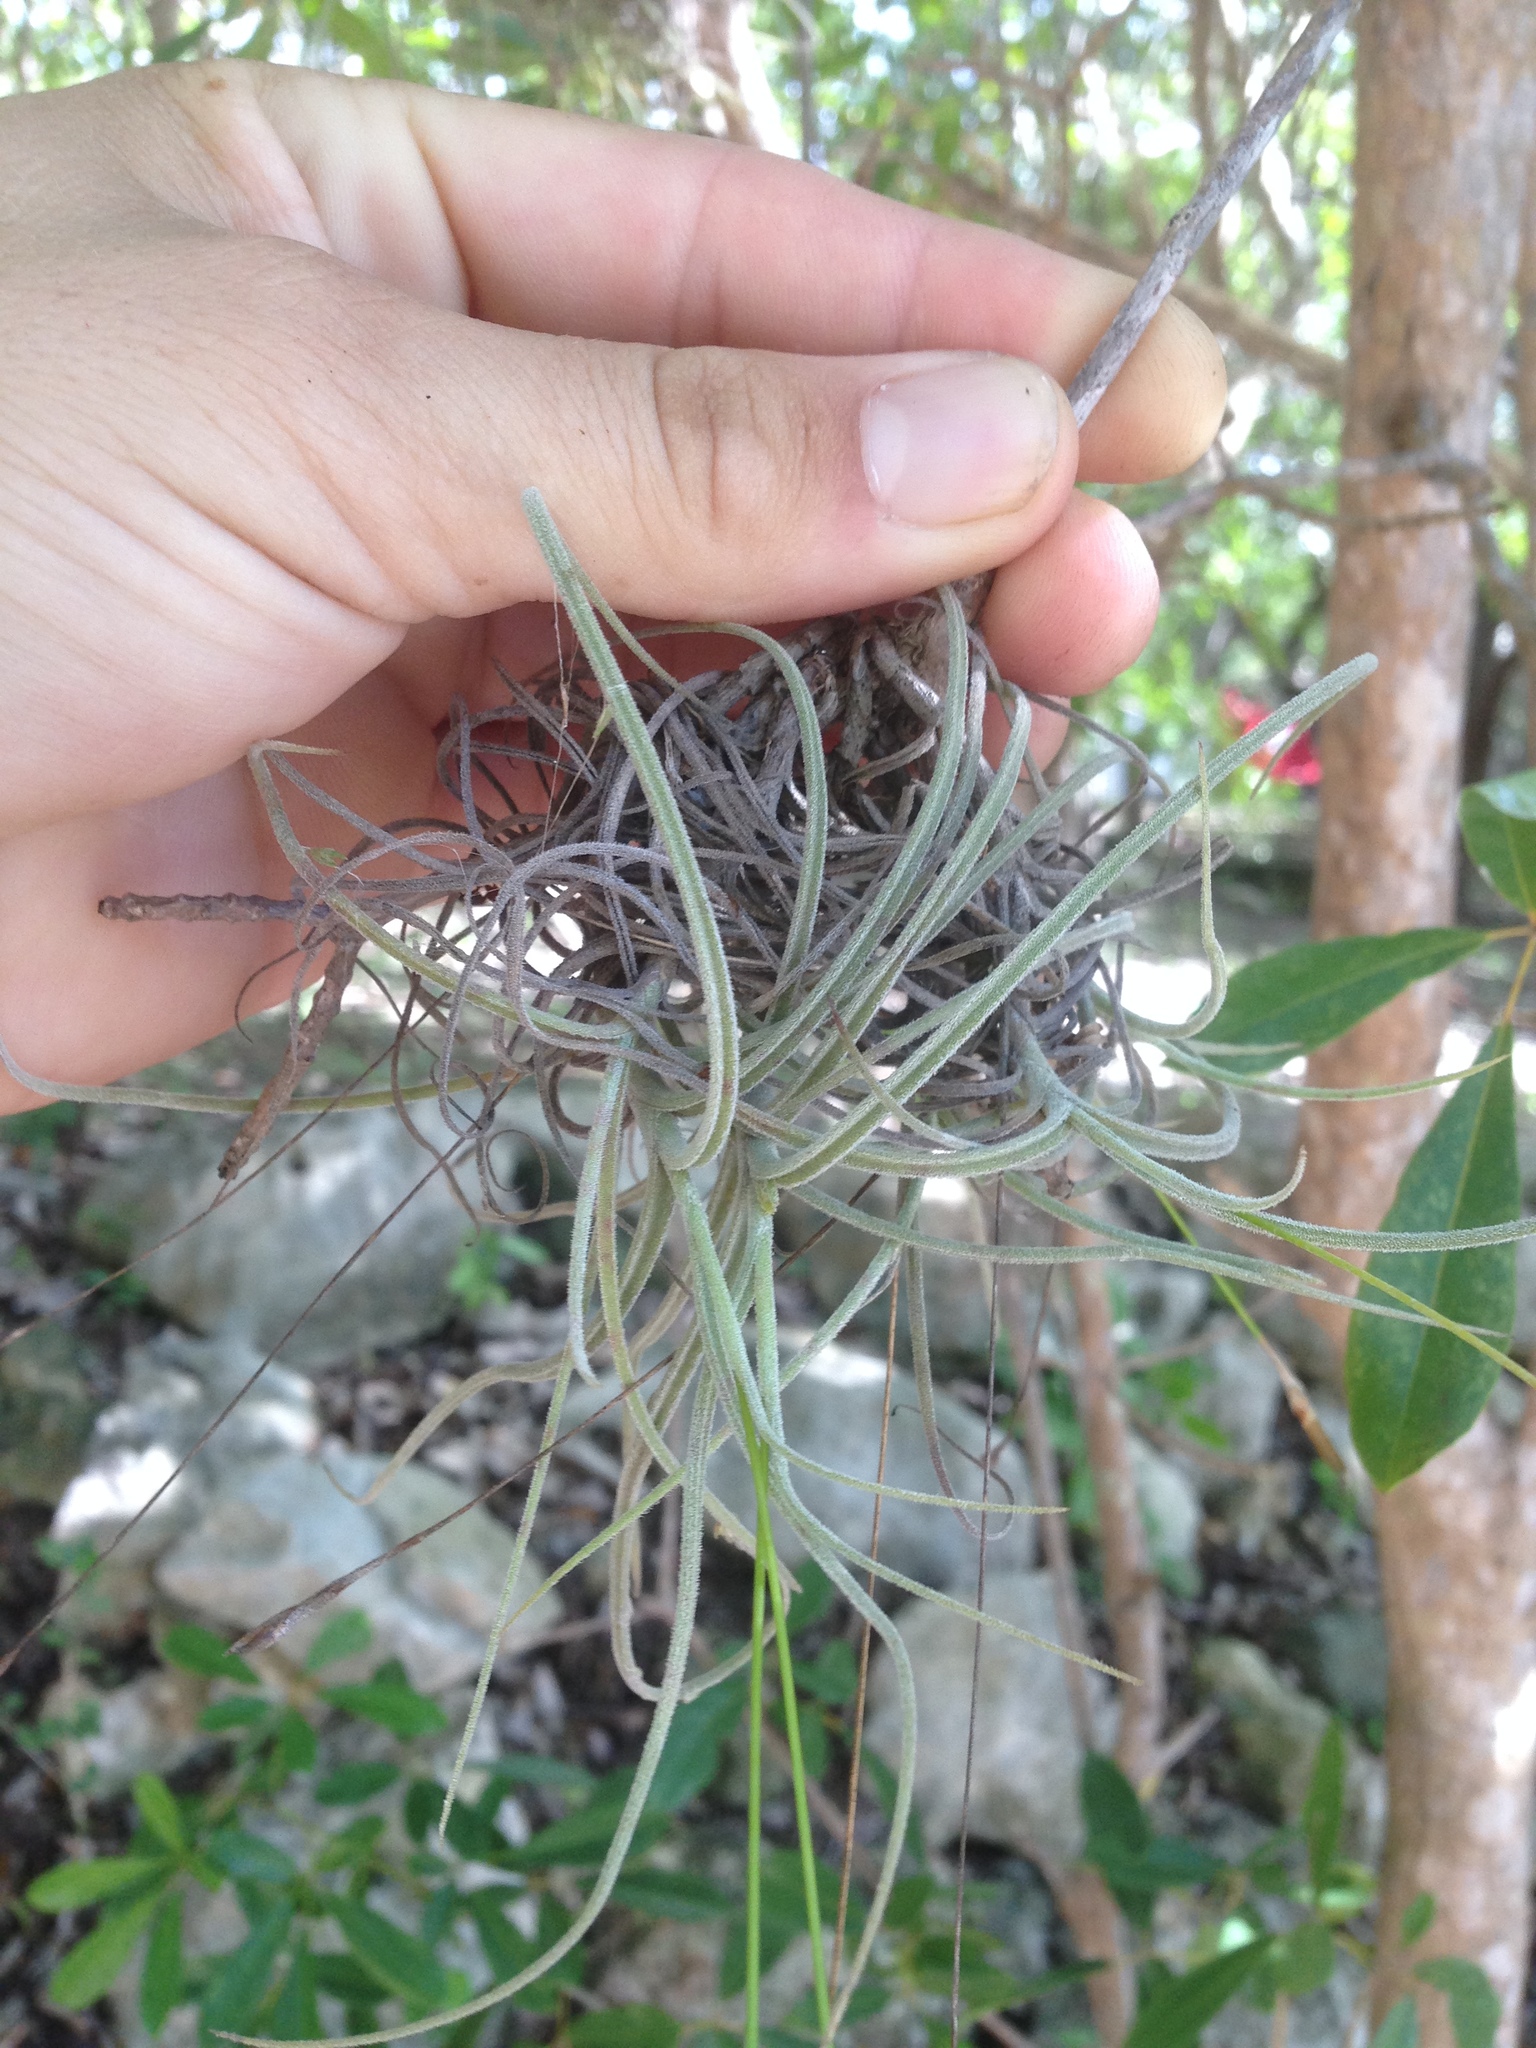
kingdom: Plantae
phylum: Tracheophyta
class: Liliopsida
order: Poales
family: Bromeliaceae
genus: Tillandsia
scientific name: Tillandsia recurvata
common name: Small ballmoss
